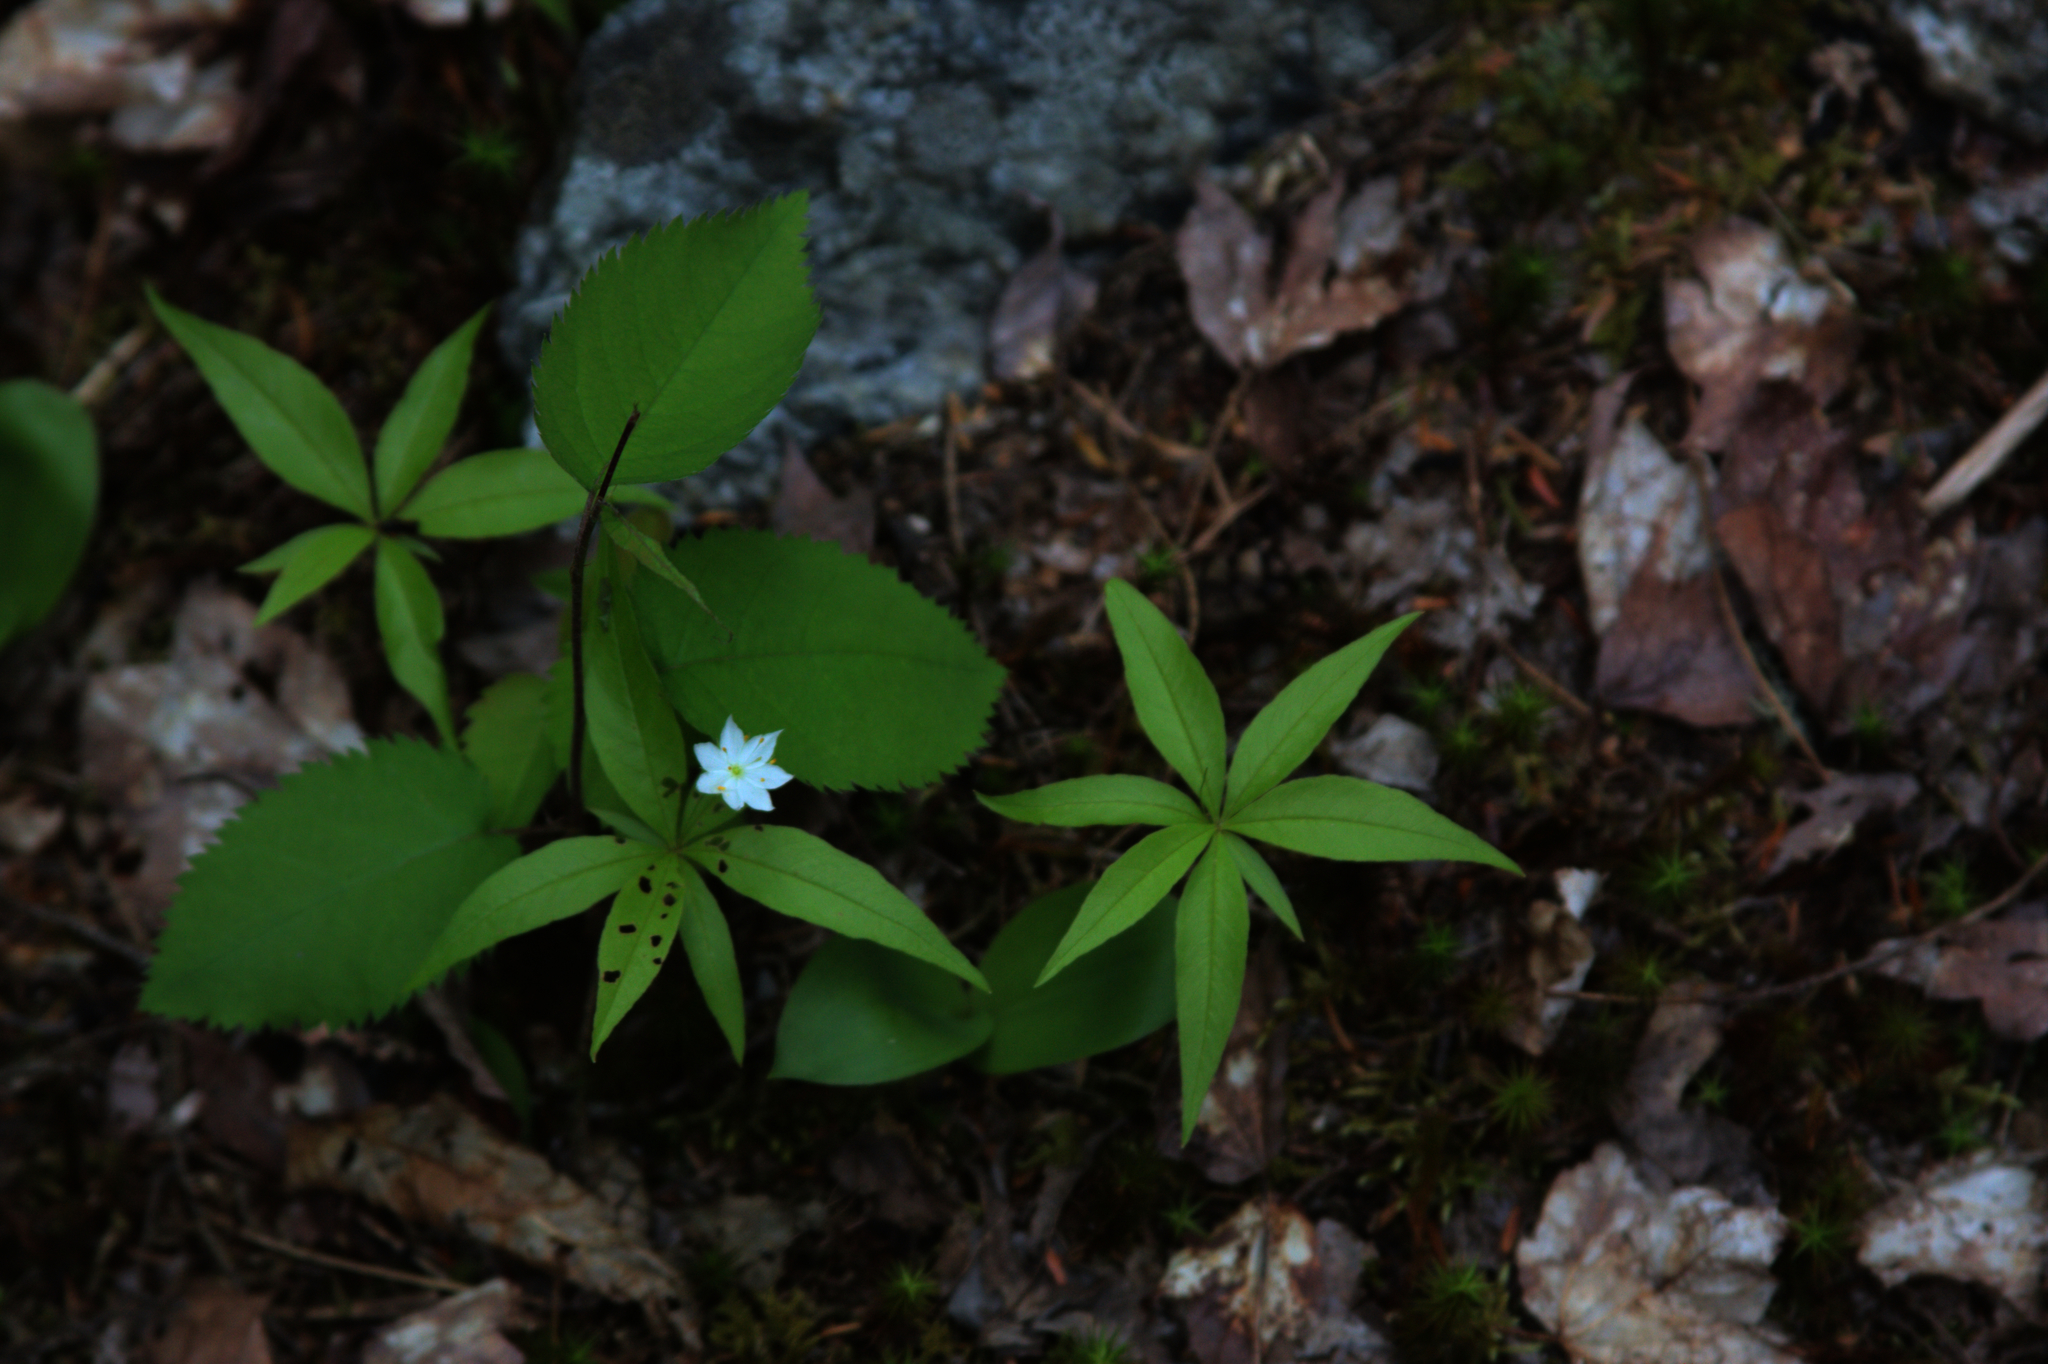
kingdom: Plantae
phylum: Tracheophyta
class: Magnoliopsida
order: Ericales
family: Primulaceae
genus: Lysimachia
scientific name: Lysimachia borealis
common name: American starflower
